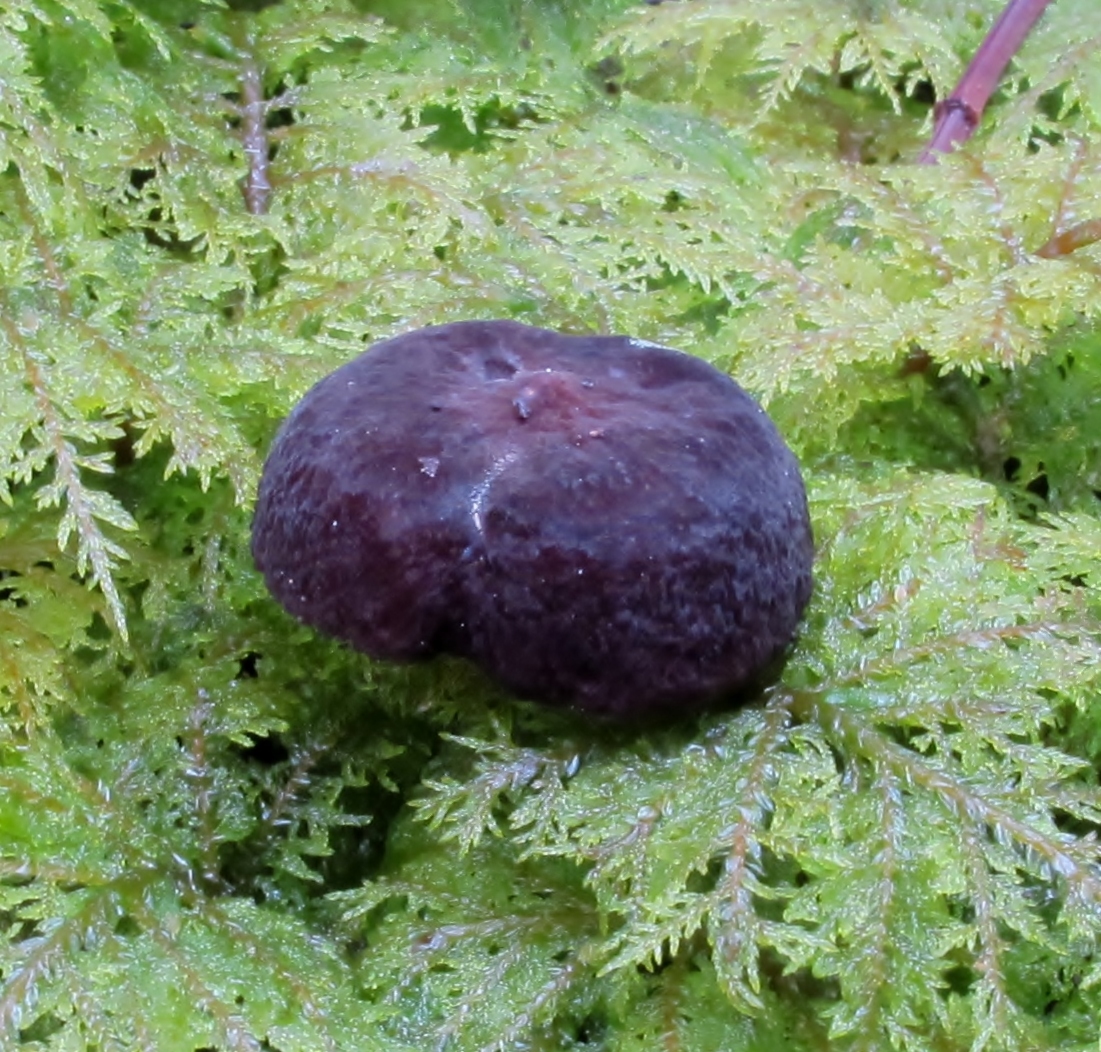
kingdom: Fungi
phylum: Basidiomycota
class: Agaricomycetes
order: Russulales
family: Russulaceae
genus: Lactarius
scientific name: Lactarius lignyotellus
